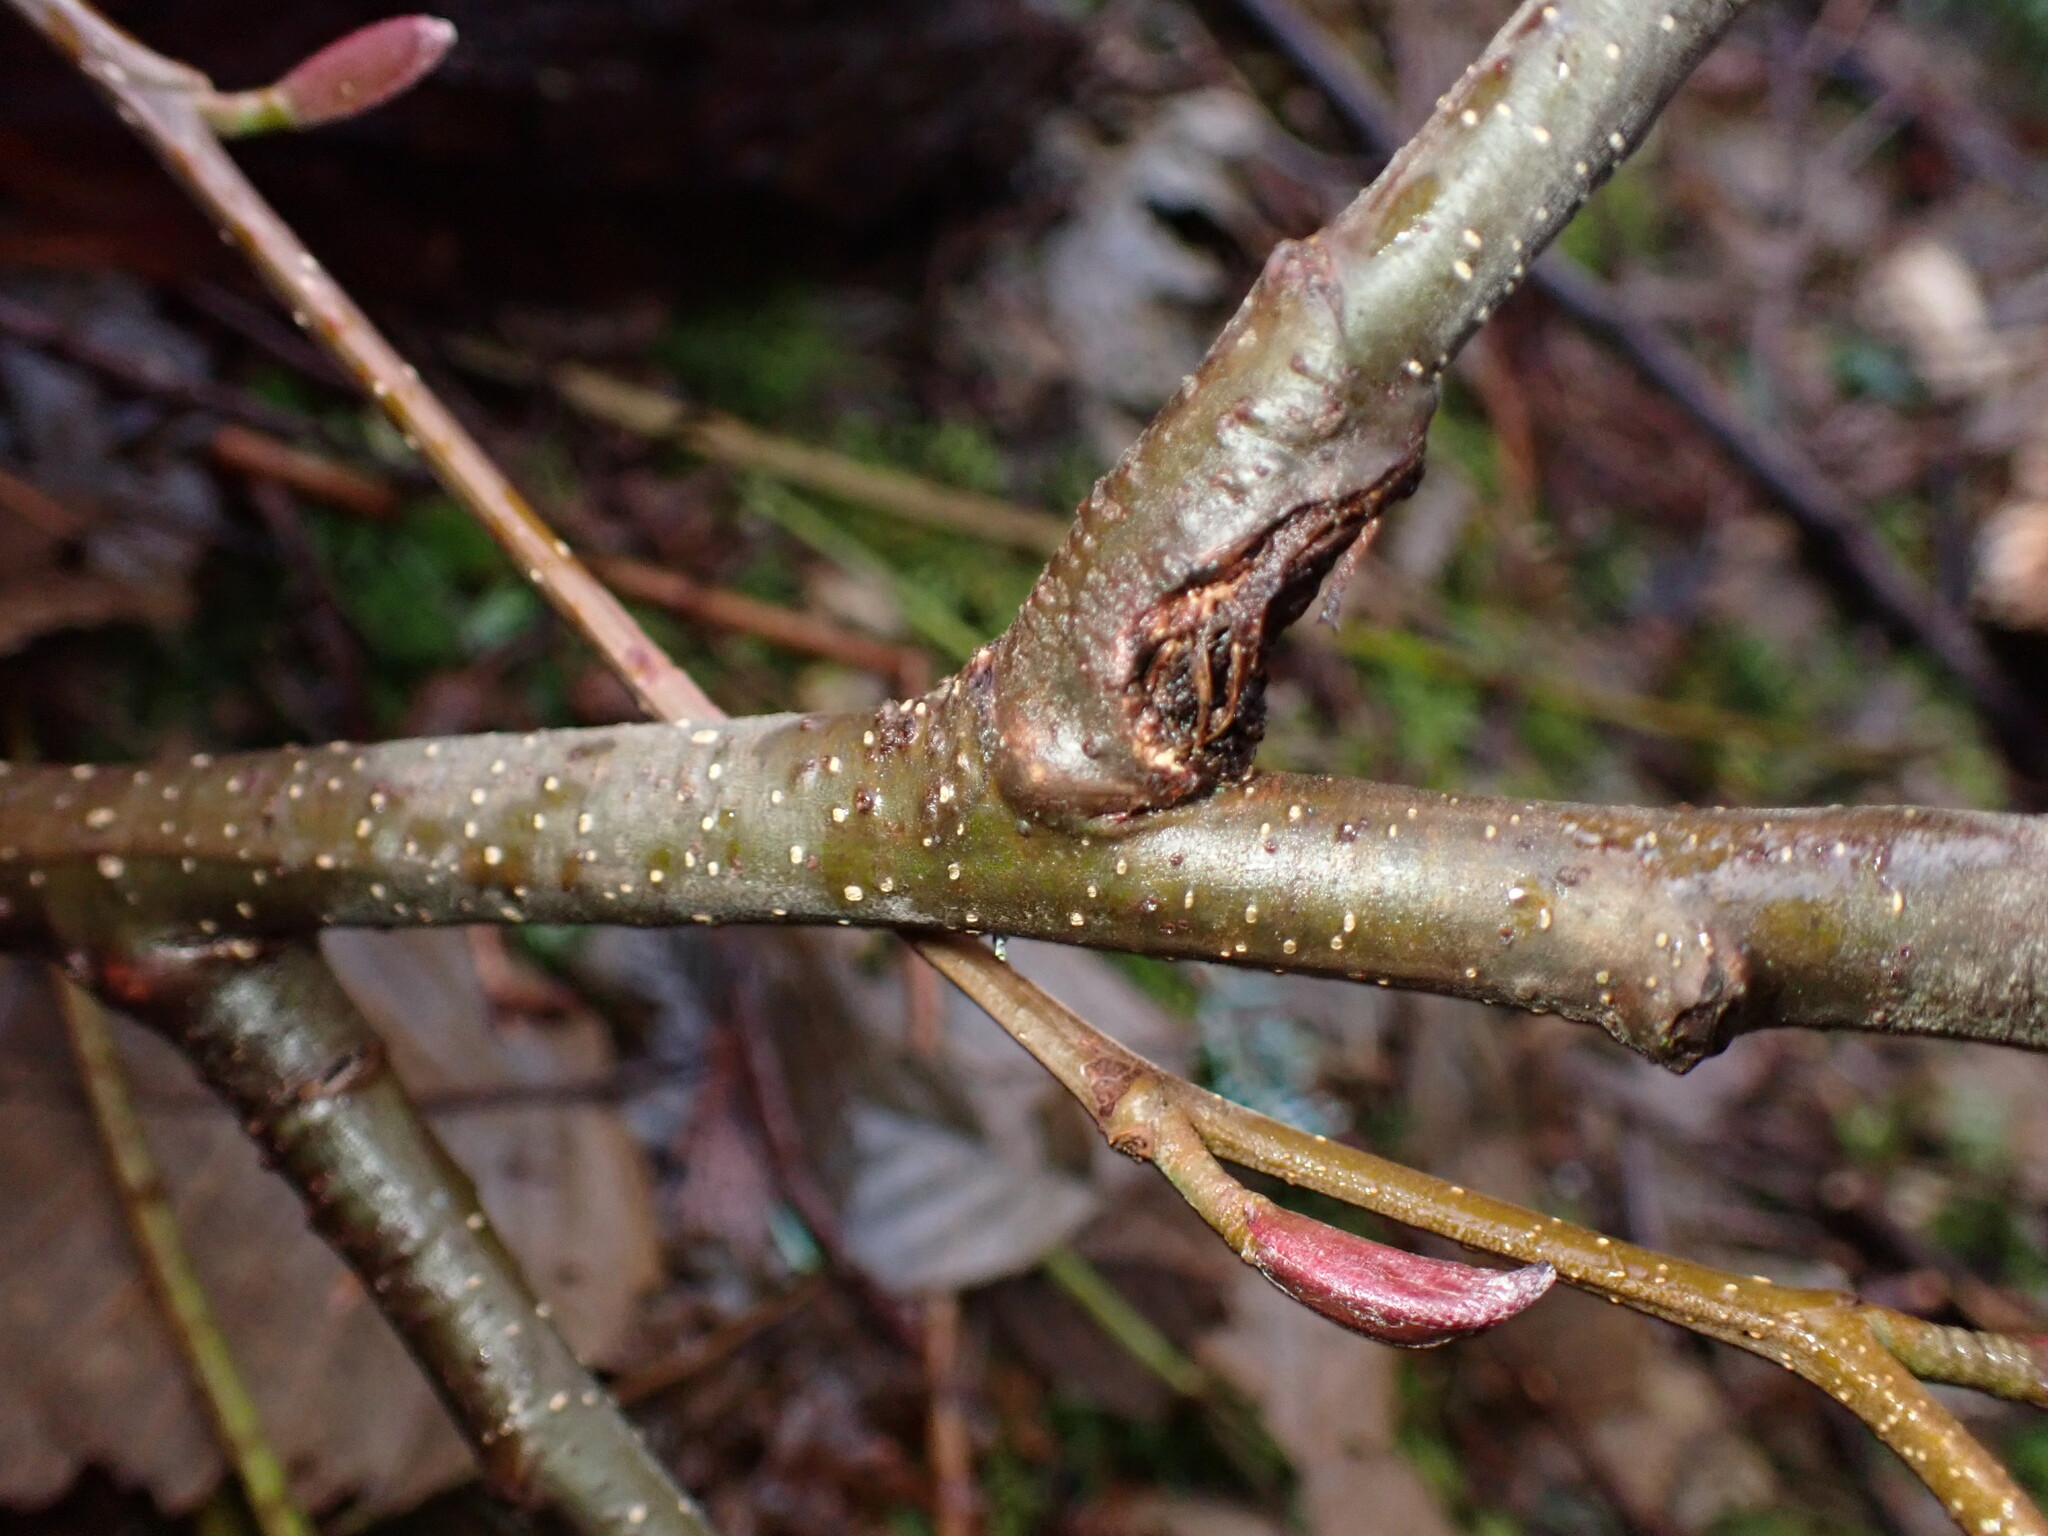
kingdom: Plantae
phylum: Tracheophyta
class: Magnoliopsida
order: Fagales
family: Betulaceae
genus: Alnus
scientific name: Alnus rubra
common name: Red alder
